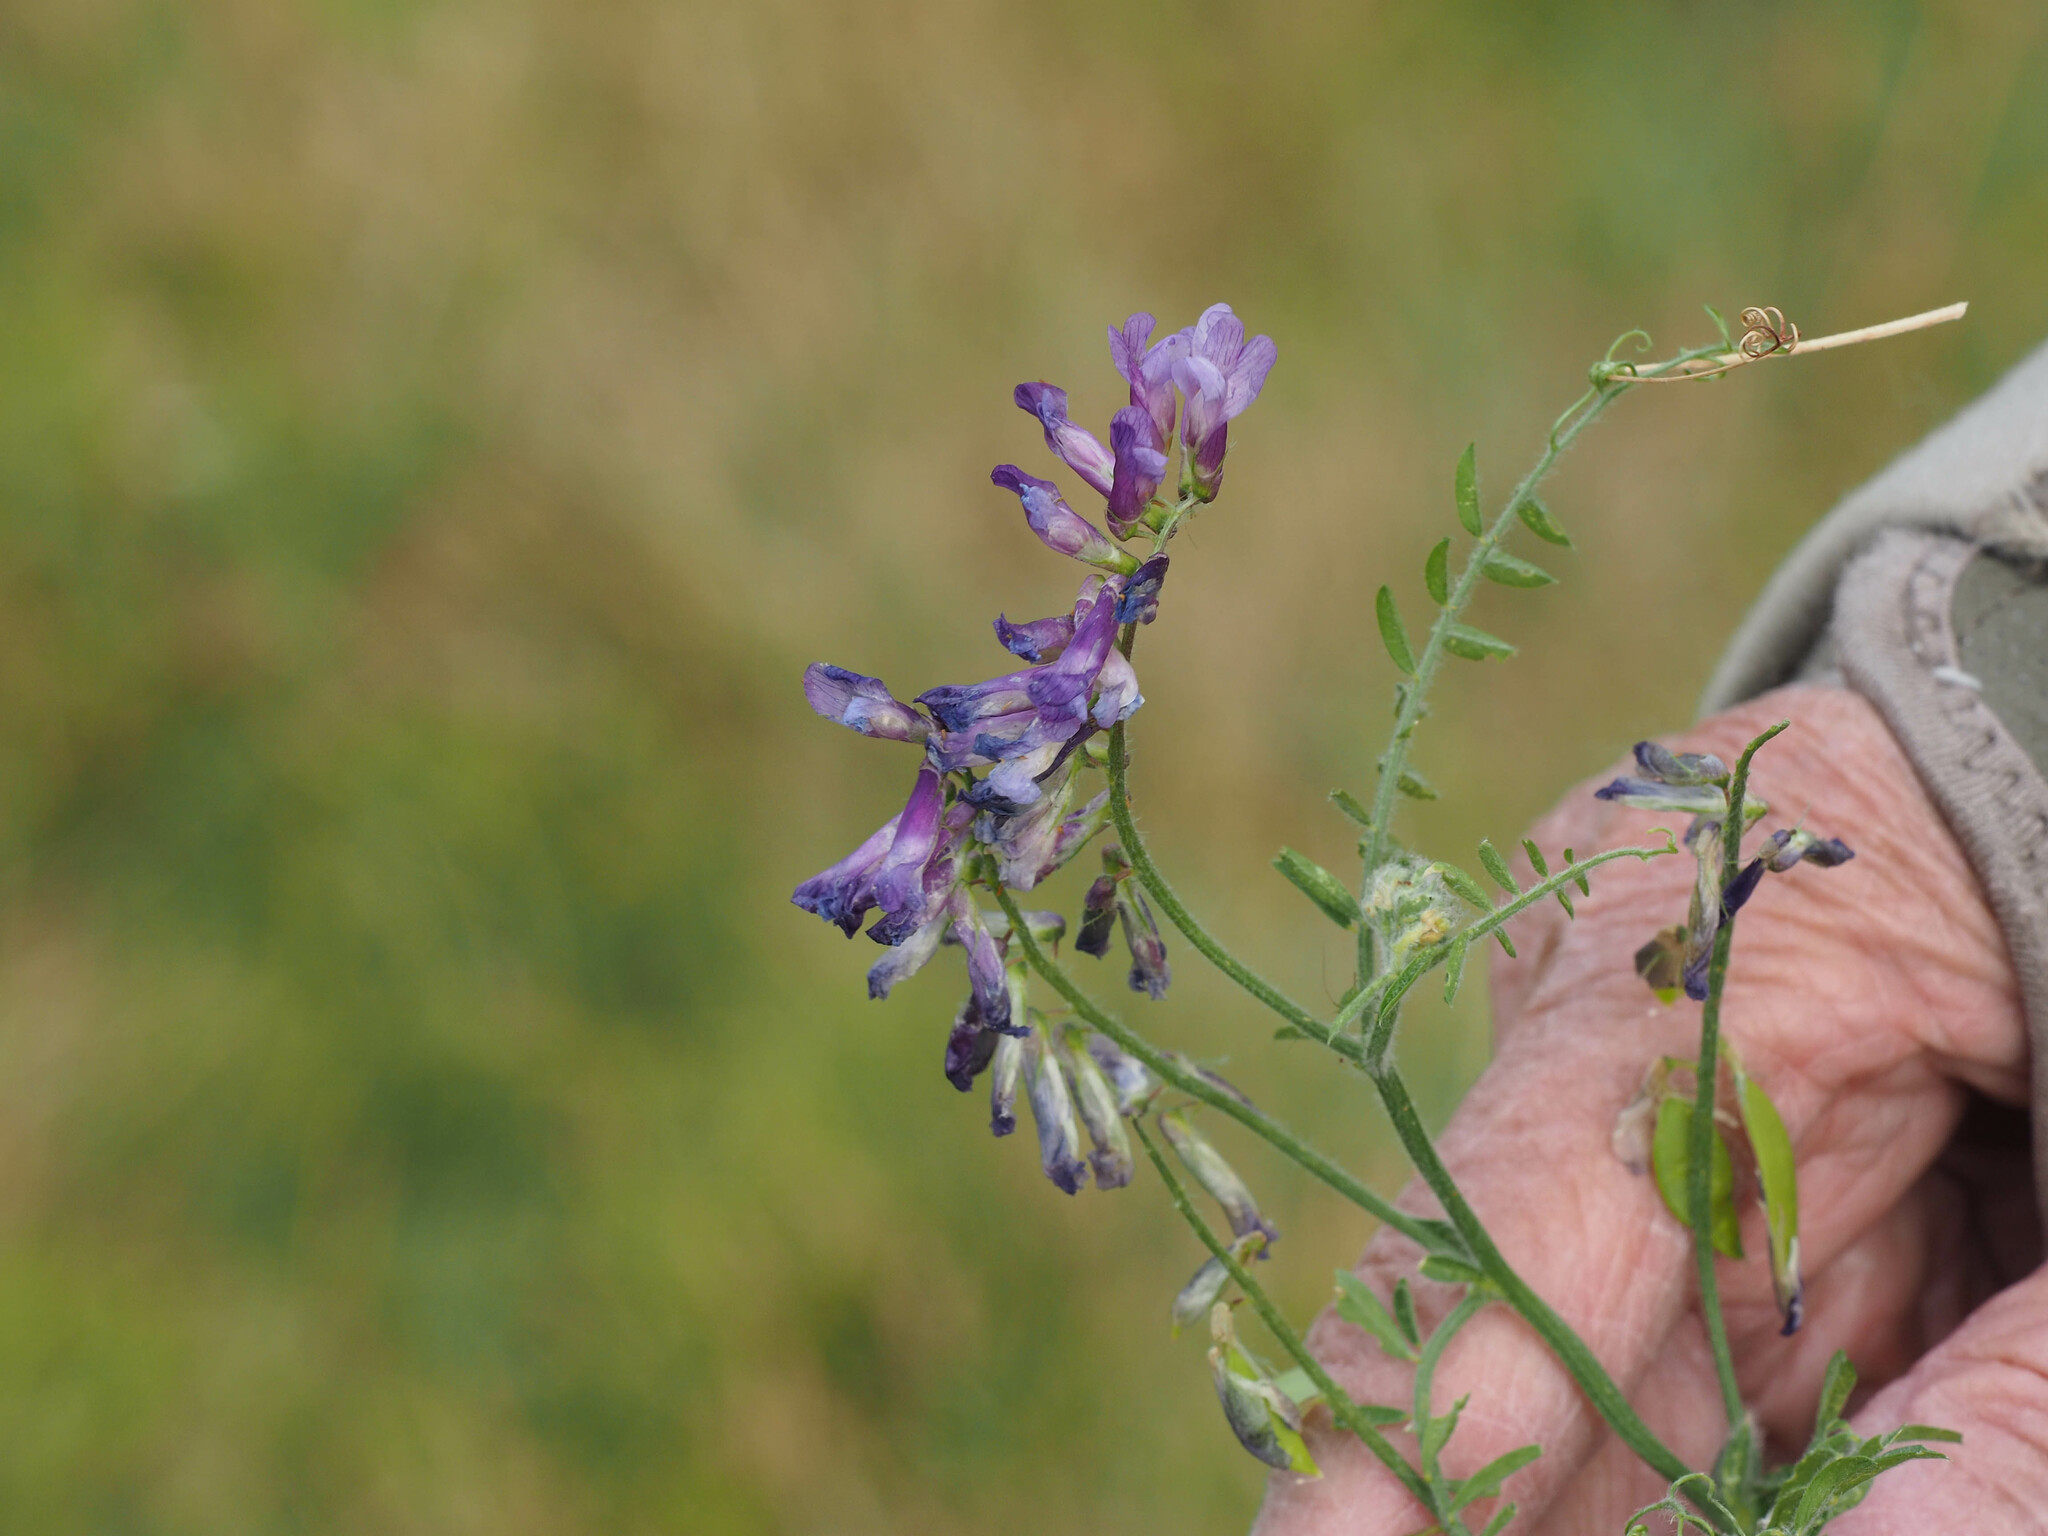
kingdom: Plantae
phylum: Tracheophyta
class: Magnoliopsida
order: Fabales
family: Fabaceae
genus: Vicia
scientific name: Vicia villosa
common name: Fodder vetch
